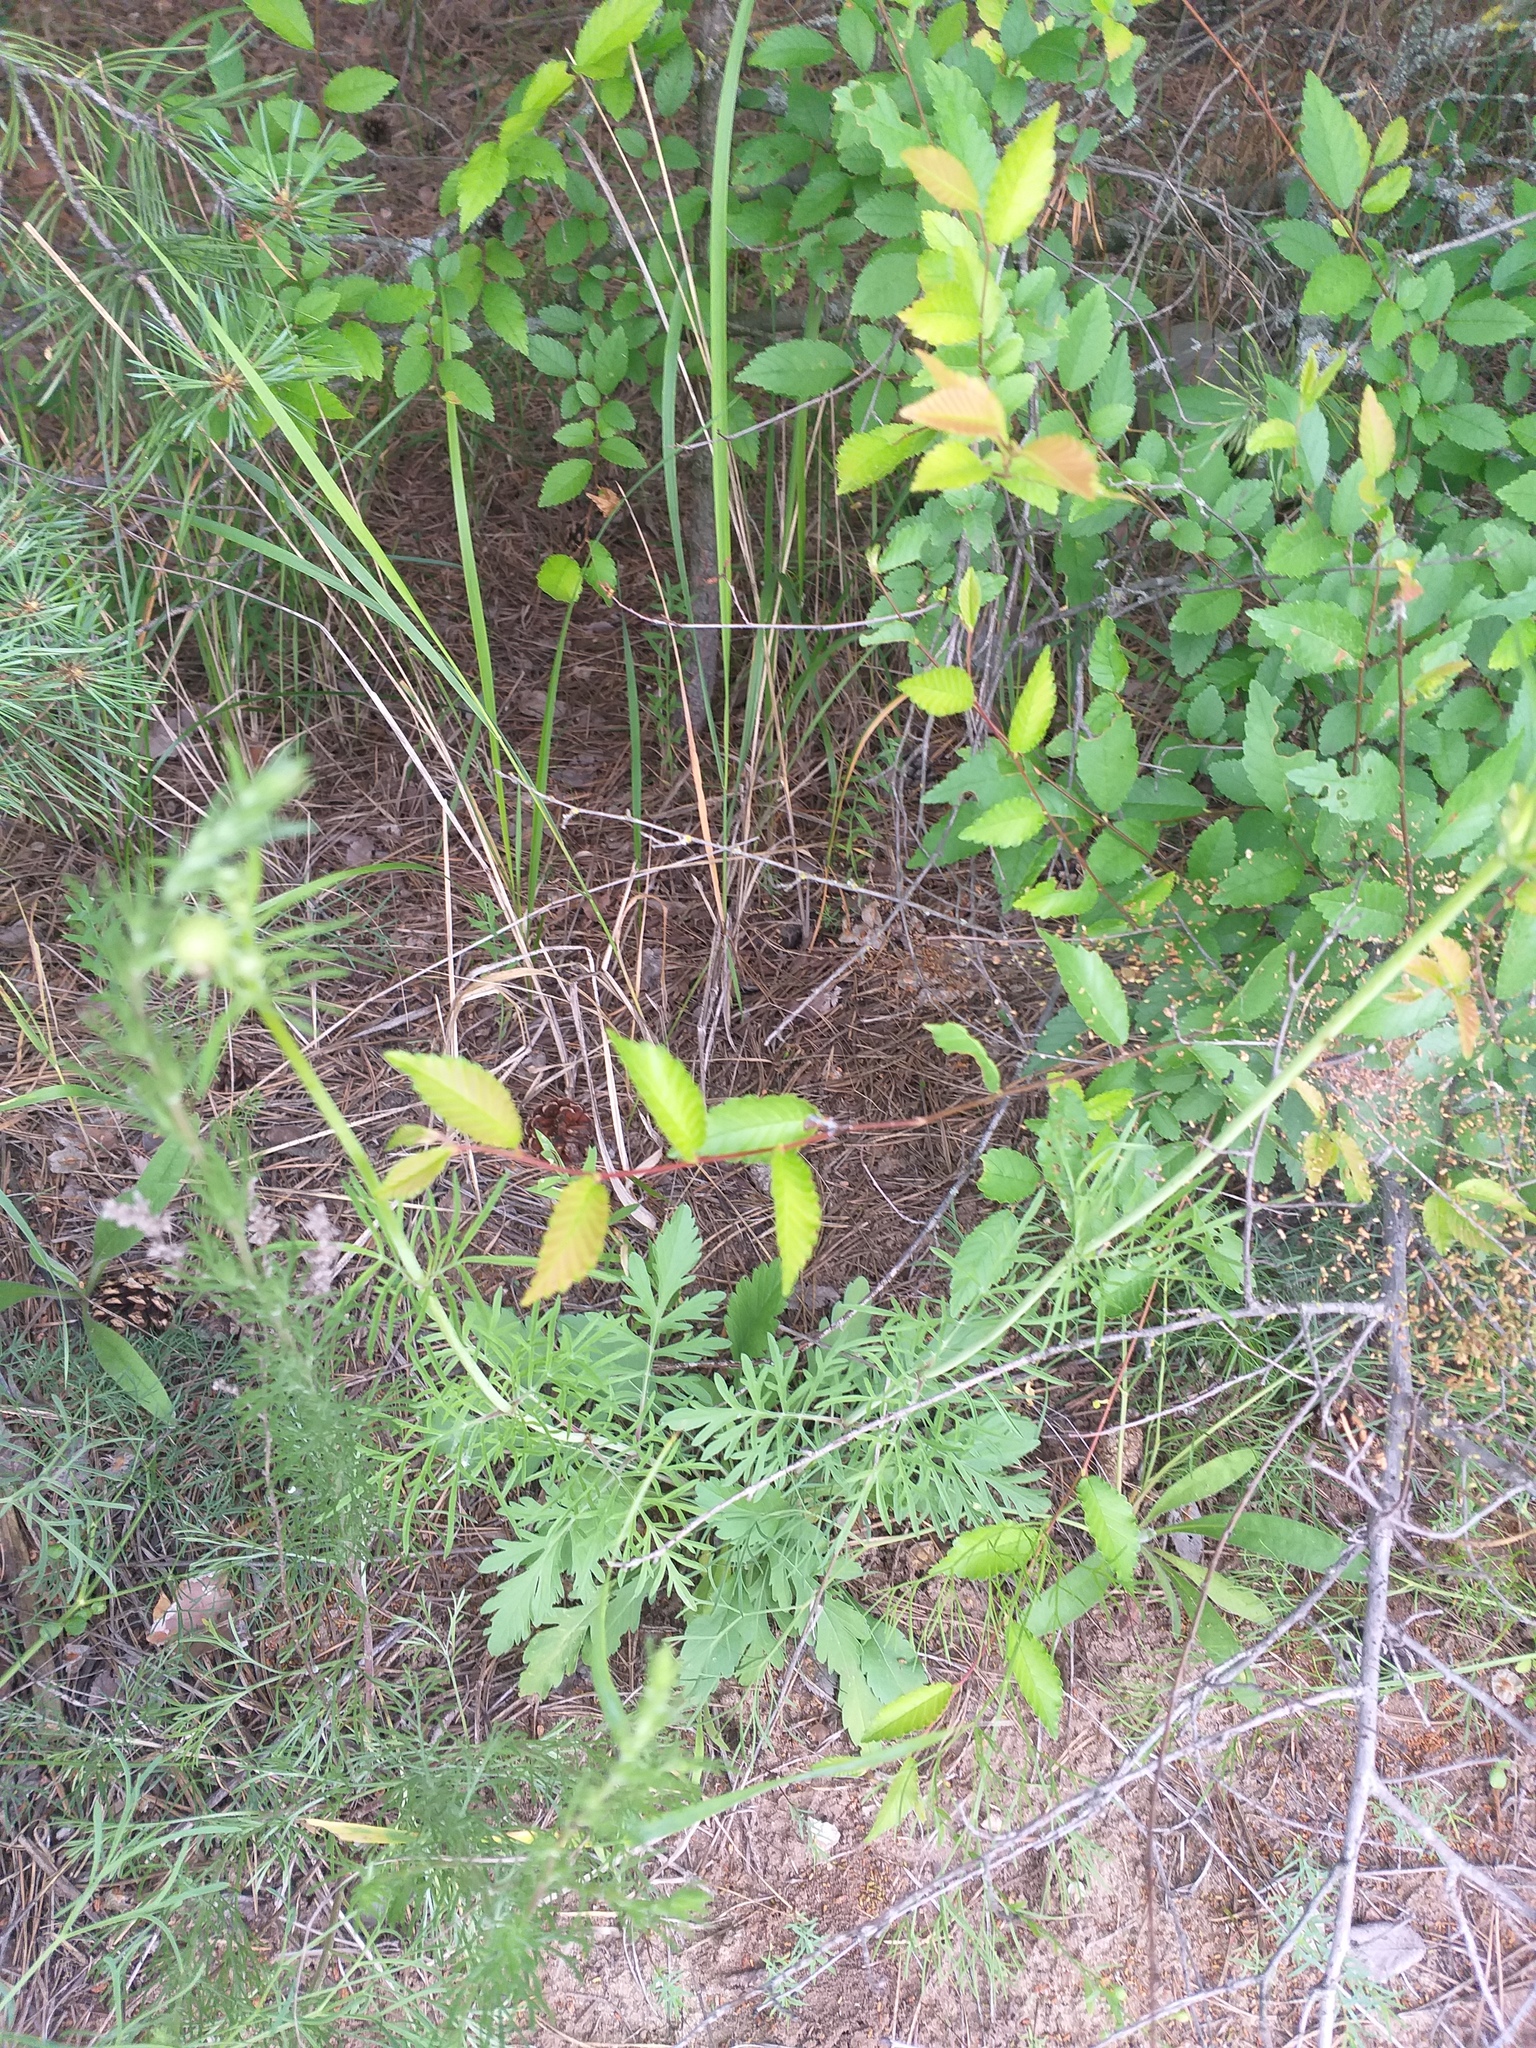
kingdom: Plantae
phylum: Tracheophyta
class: Magnoliopsida
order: Dipsacales
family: Caprifoliaceae
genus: Scabiosa
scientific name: Scabiosa ochroleuca
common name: Cream pincushions
